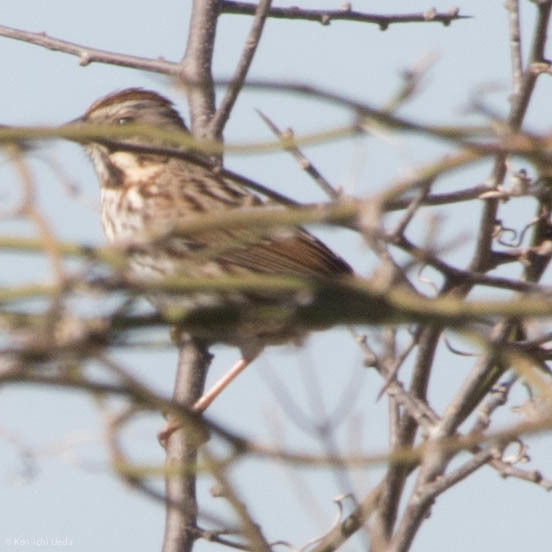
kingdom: Animalia
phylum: Chordata
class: Aves
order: Passeriformes
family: Passerellidae
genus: Melospiza
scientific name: Melospiza melodia
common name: Song sparrow
